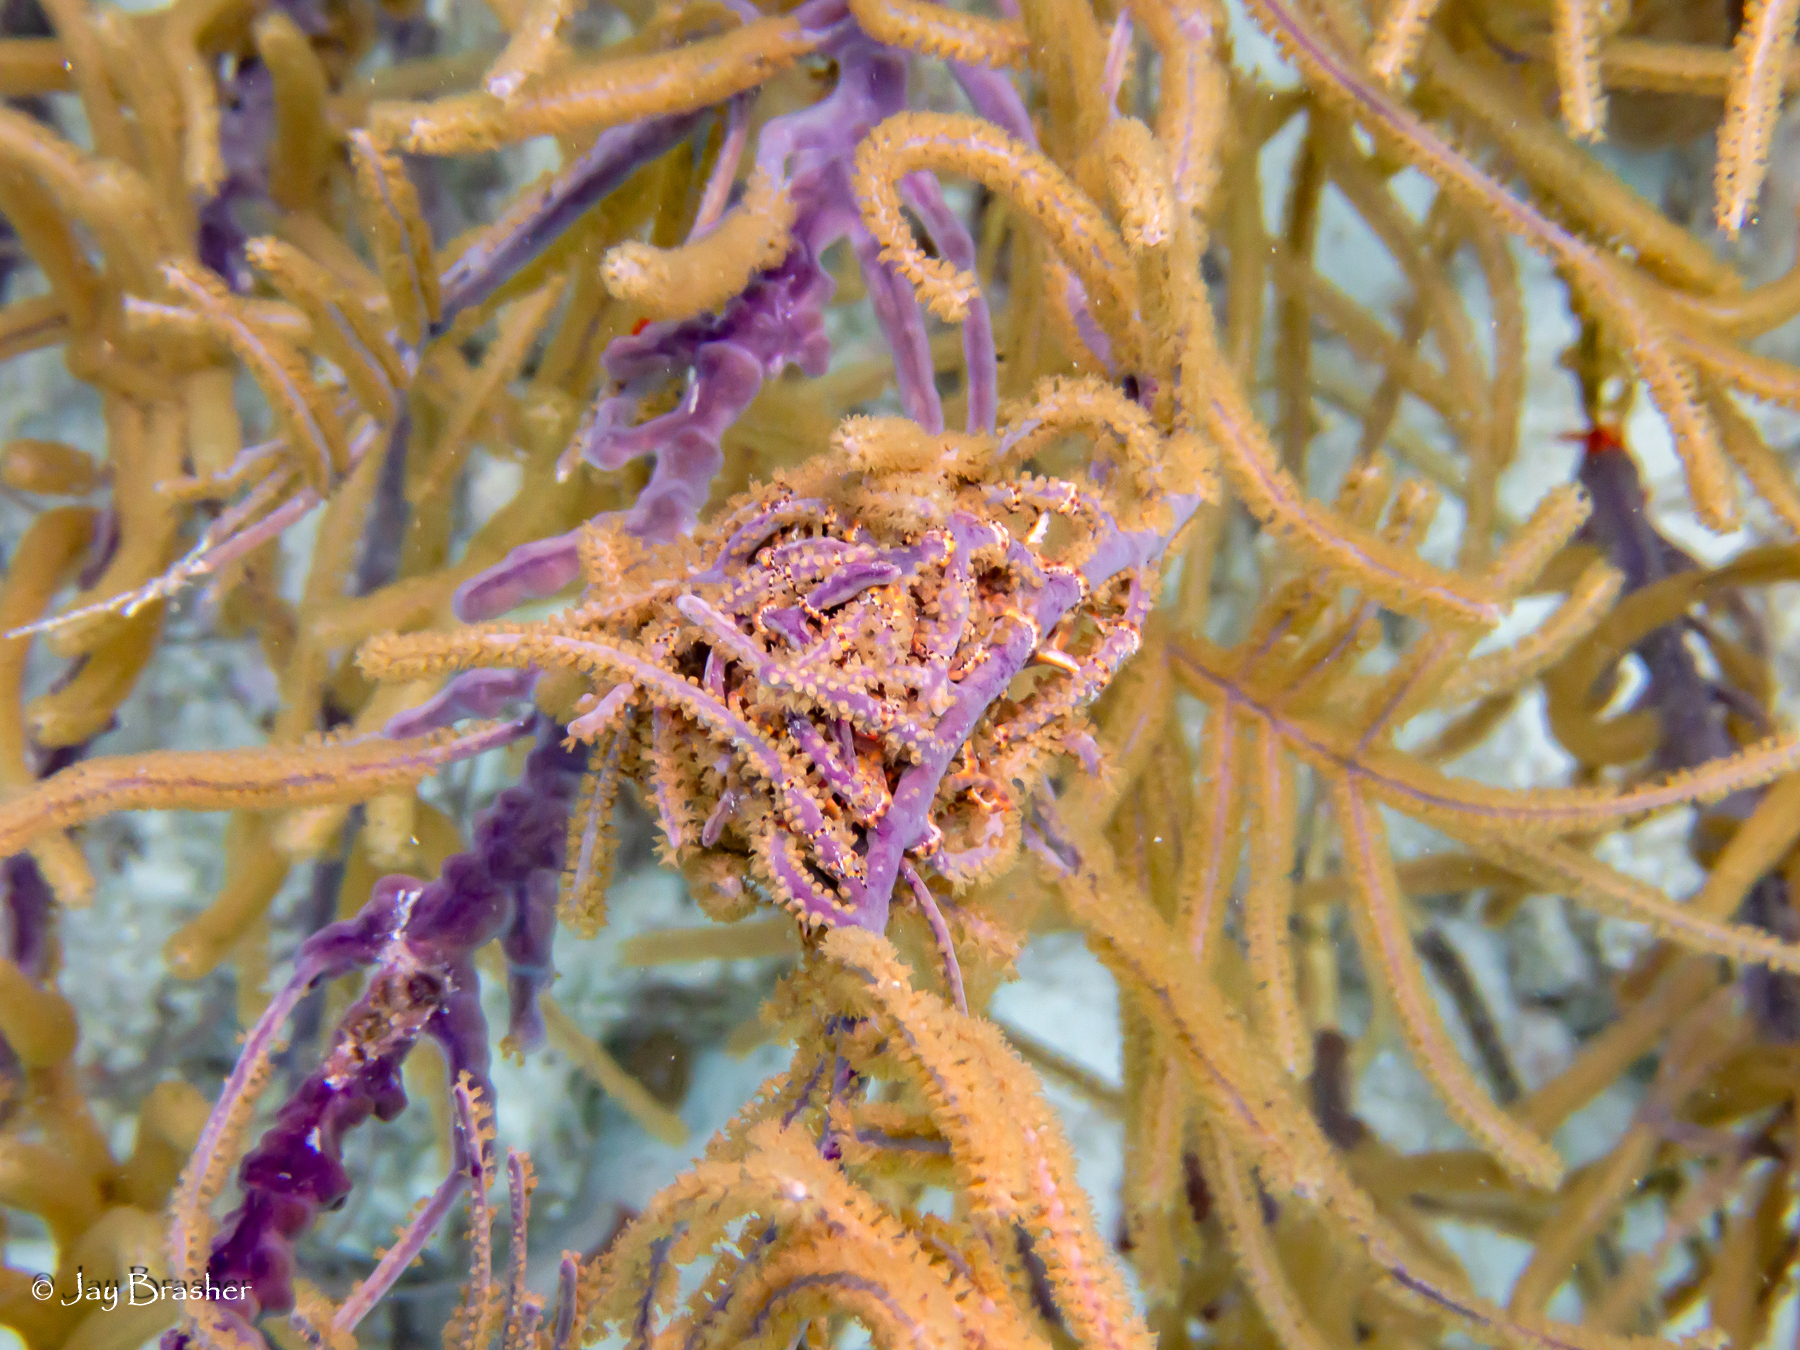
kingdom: Animalia
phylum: Echinodermata
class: Ophiuroidea
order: Euryalida
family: Gorgonocephalidae
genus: Astrophyton
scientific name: Astrophyton muricatum
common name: Basket starfish
